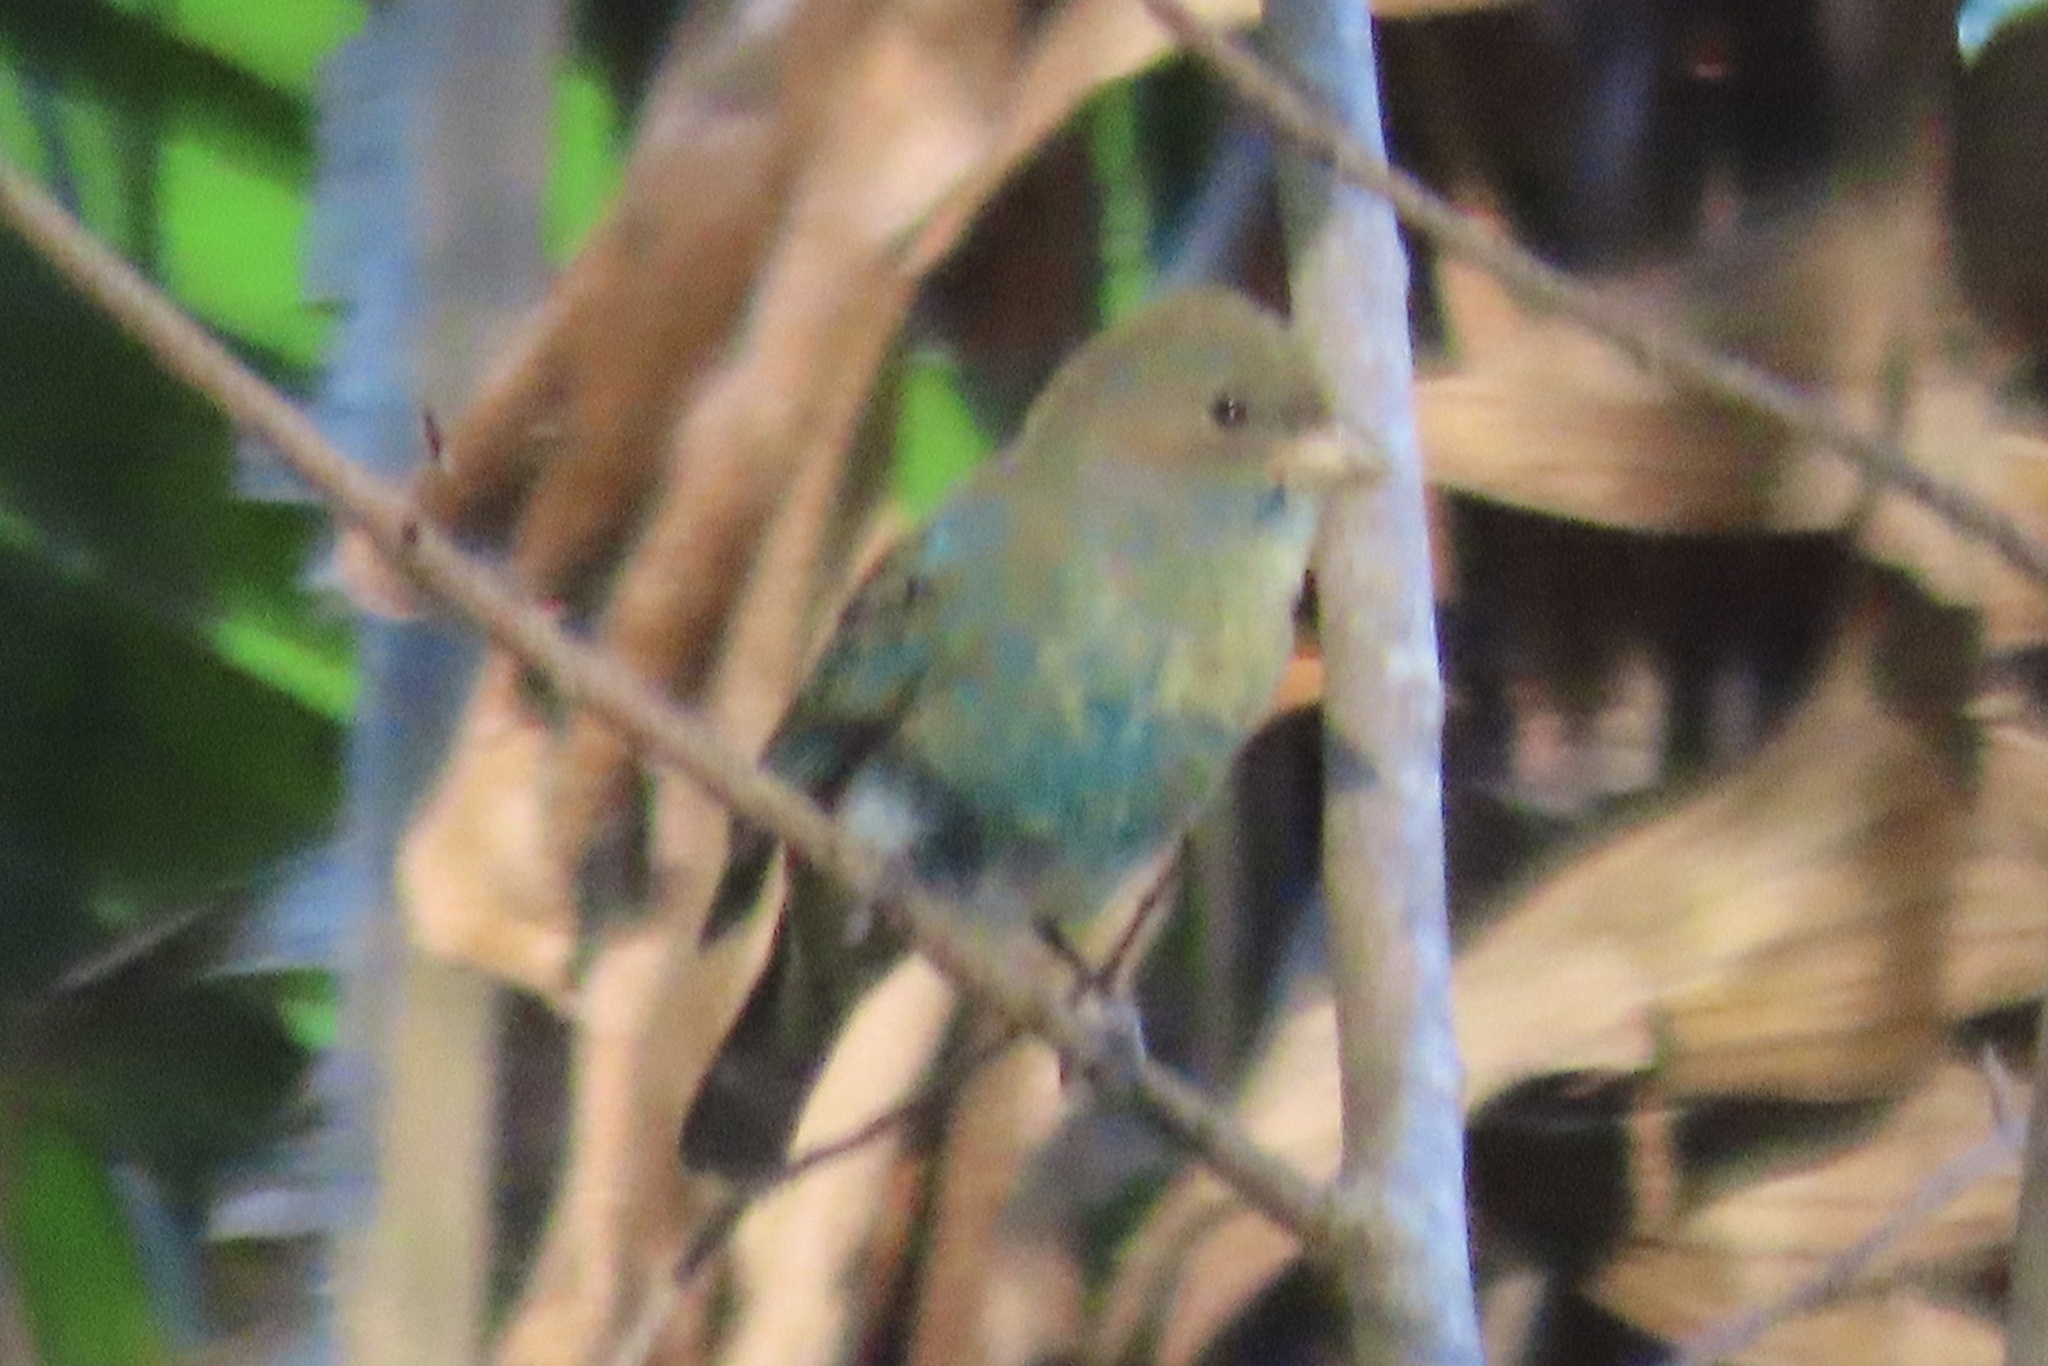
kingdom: Animalia
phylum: Chordata
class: Aves
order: Passeriformes
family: Cardinalidae
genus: Passerina
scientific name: Passerina cyanea
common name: Indigo bunting
